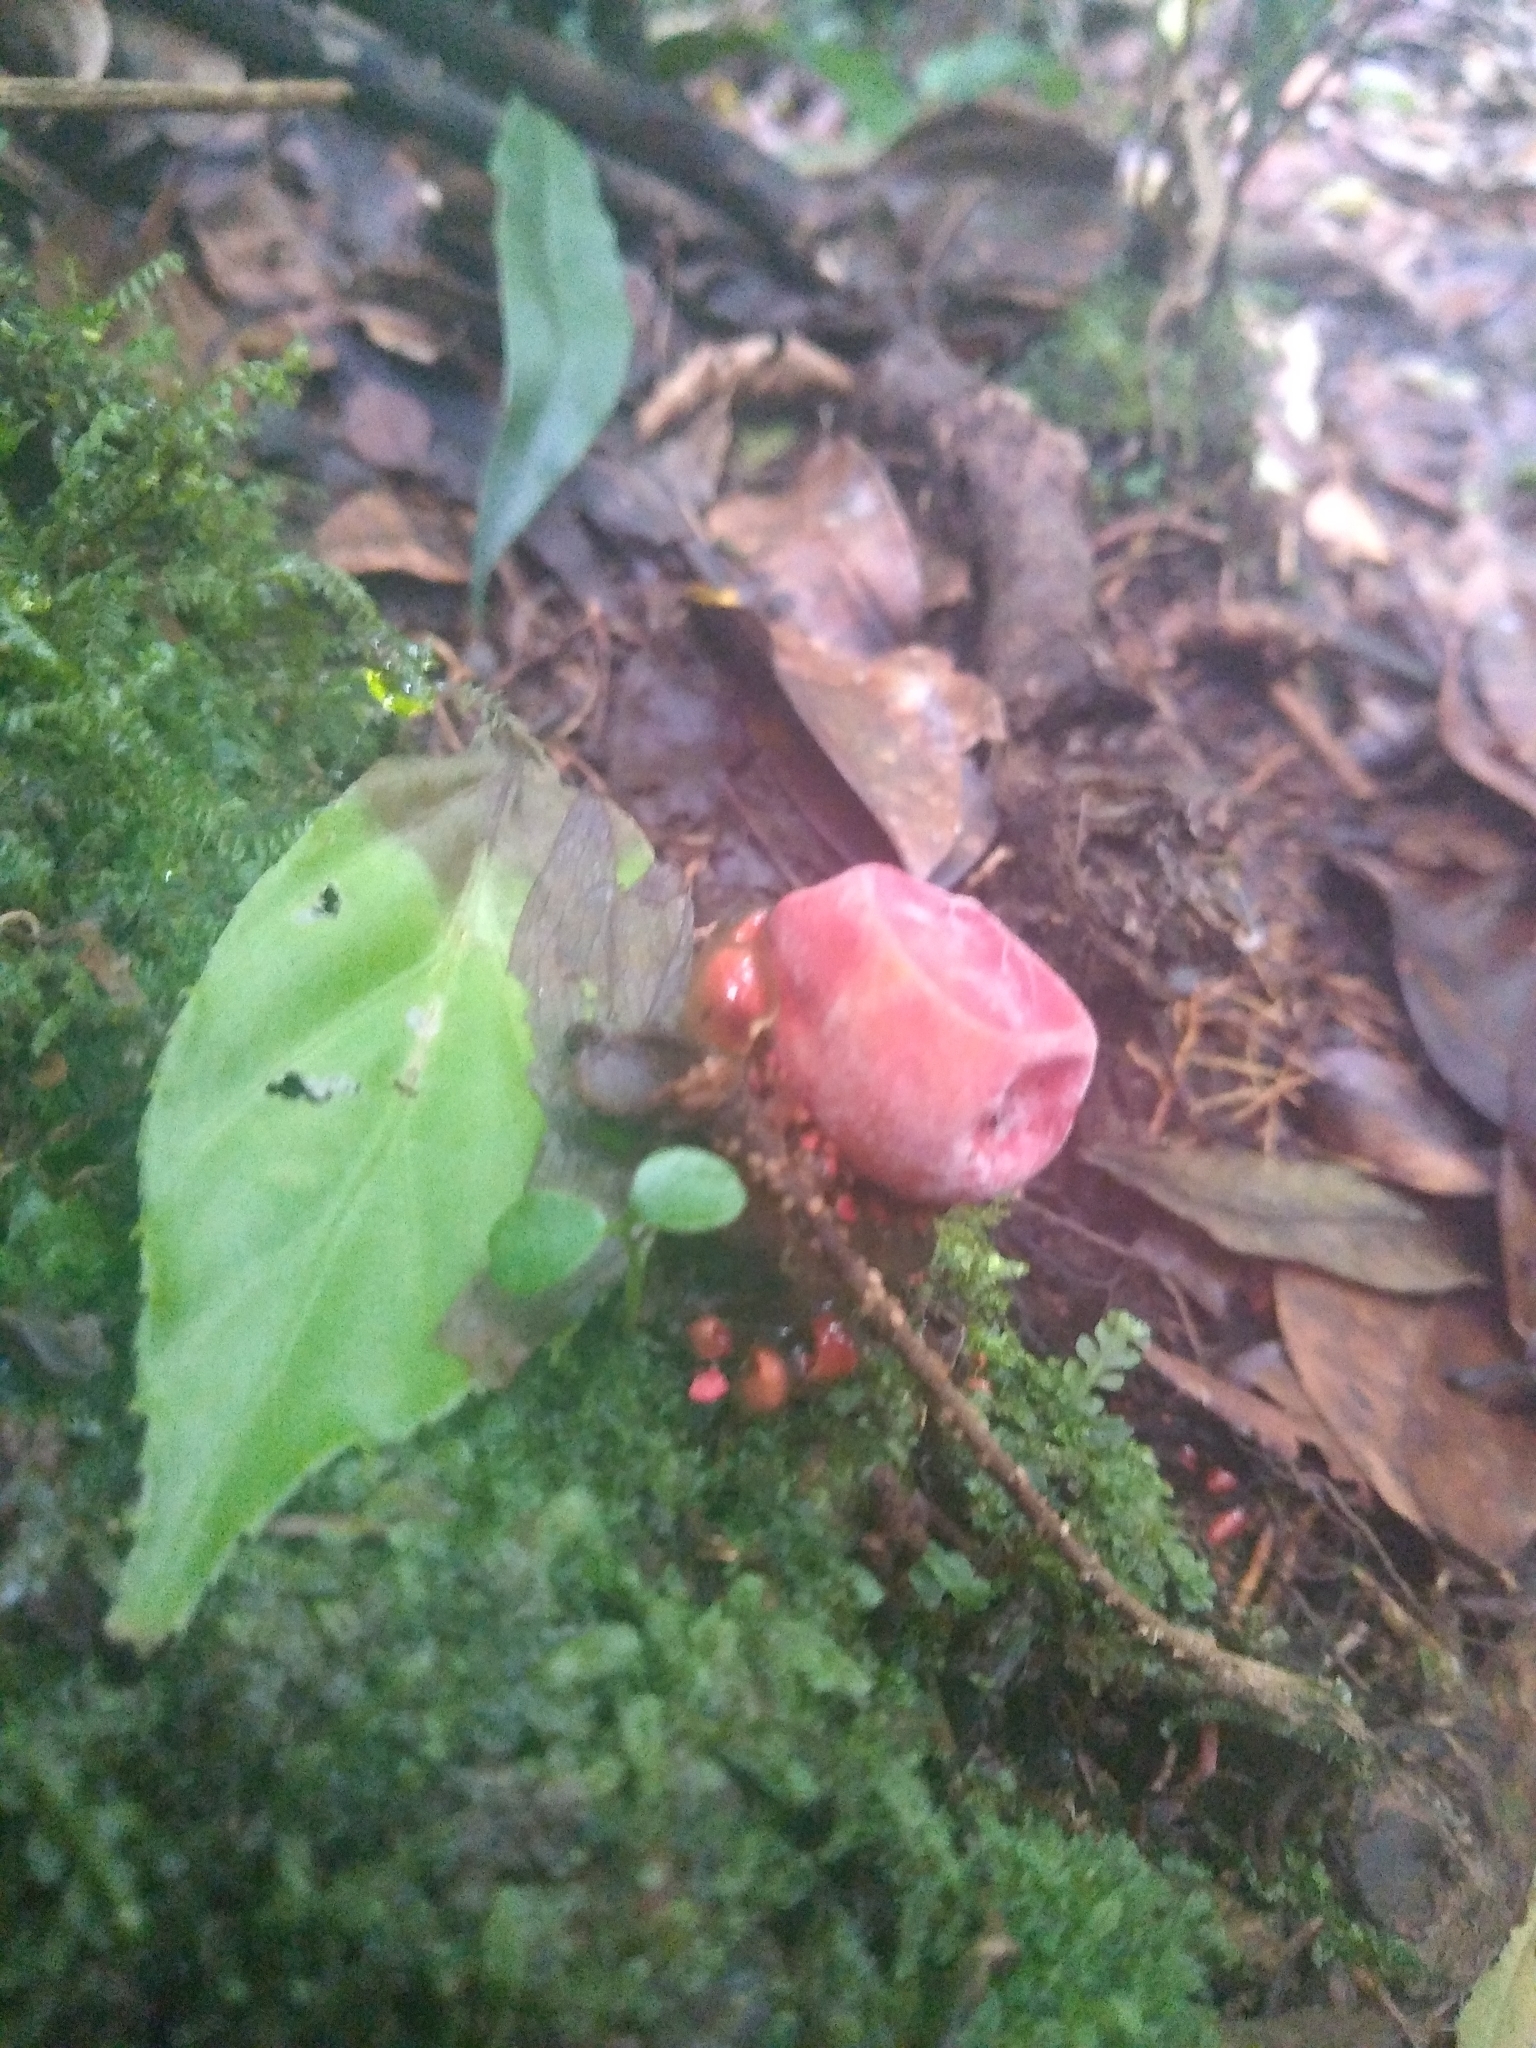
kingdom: Fungi
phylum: Basidiomycota
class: Agaricomycetes
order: Boletales
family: Calostomataceae
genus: Calostoma
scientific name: Calostoma cinnabarinum
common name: Stalked puffball-in-aspic
